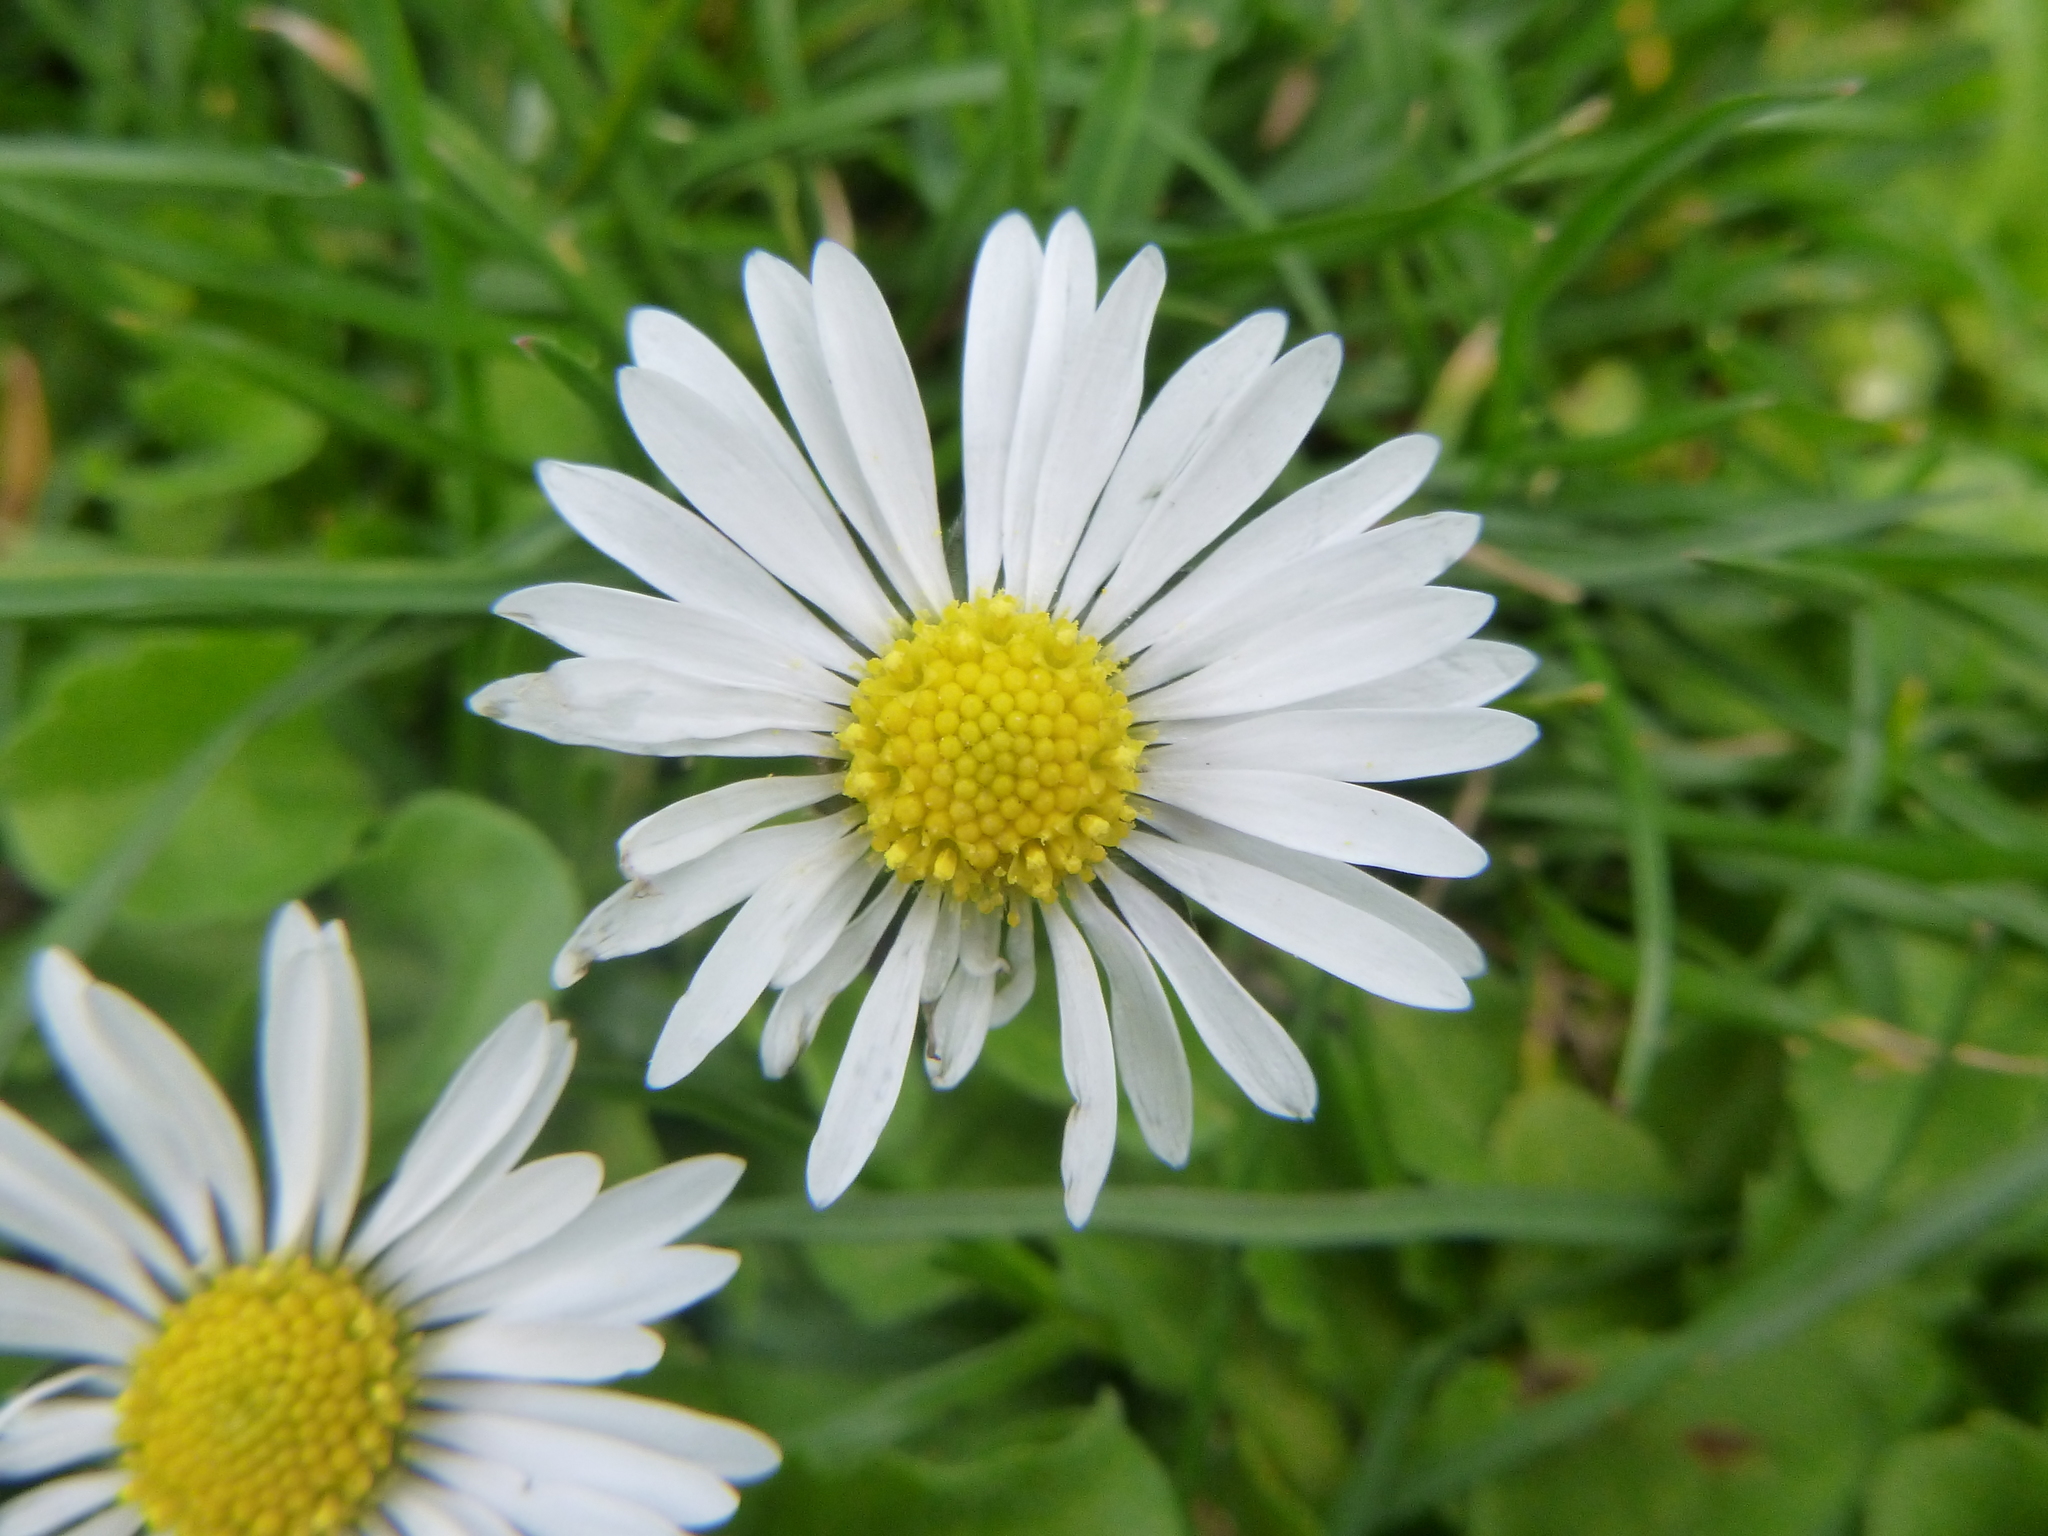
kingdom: Plantae
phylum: Tracheophyta
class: Magnoliopsida
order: Asterales
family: Asteraceae
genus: Bellis
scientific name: Bellis perennis
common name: Lawndaisy
